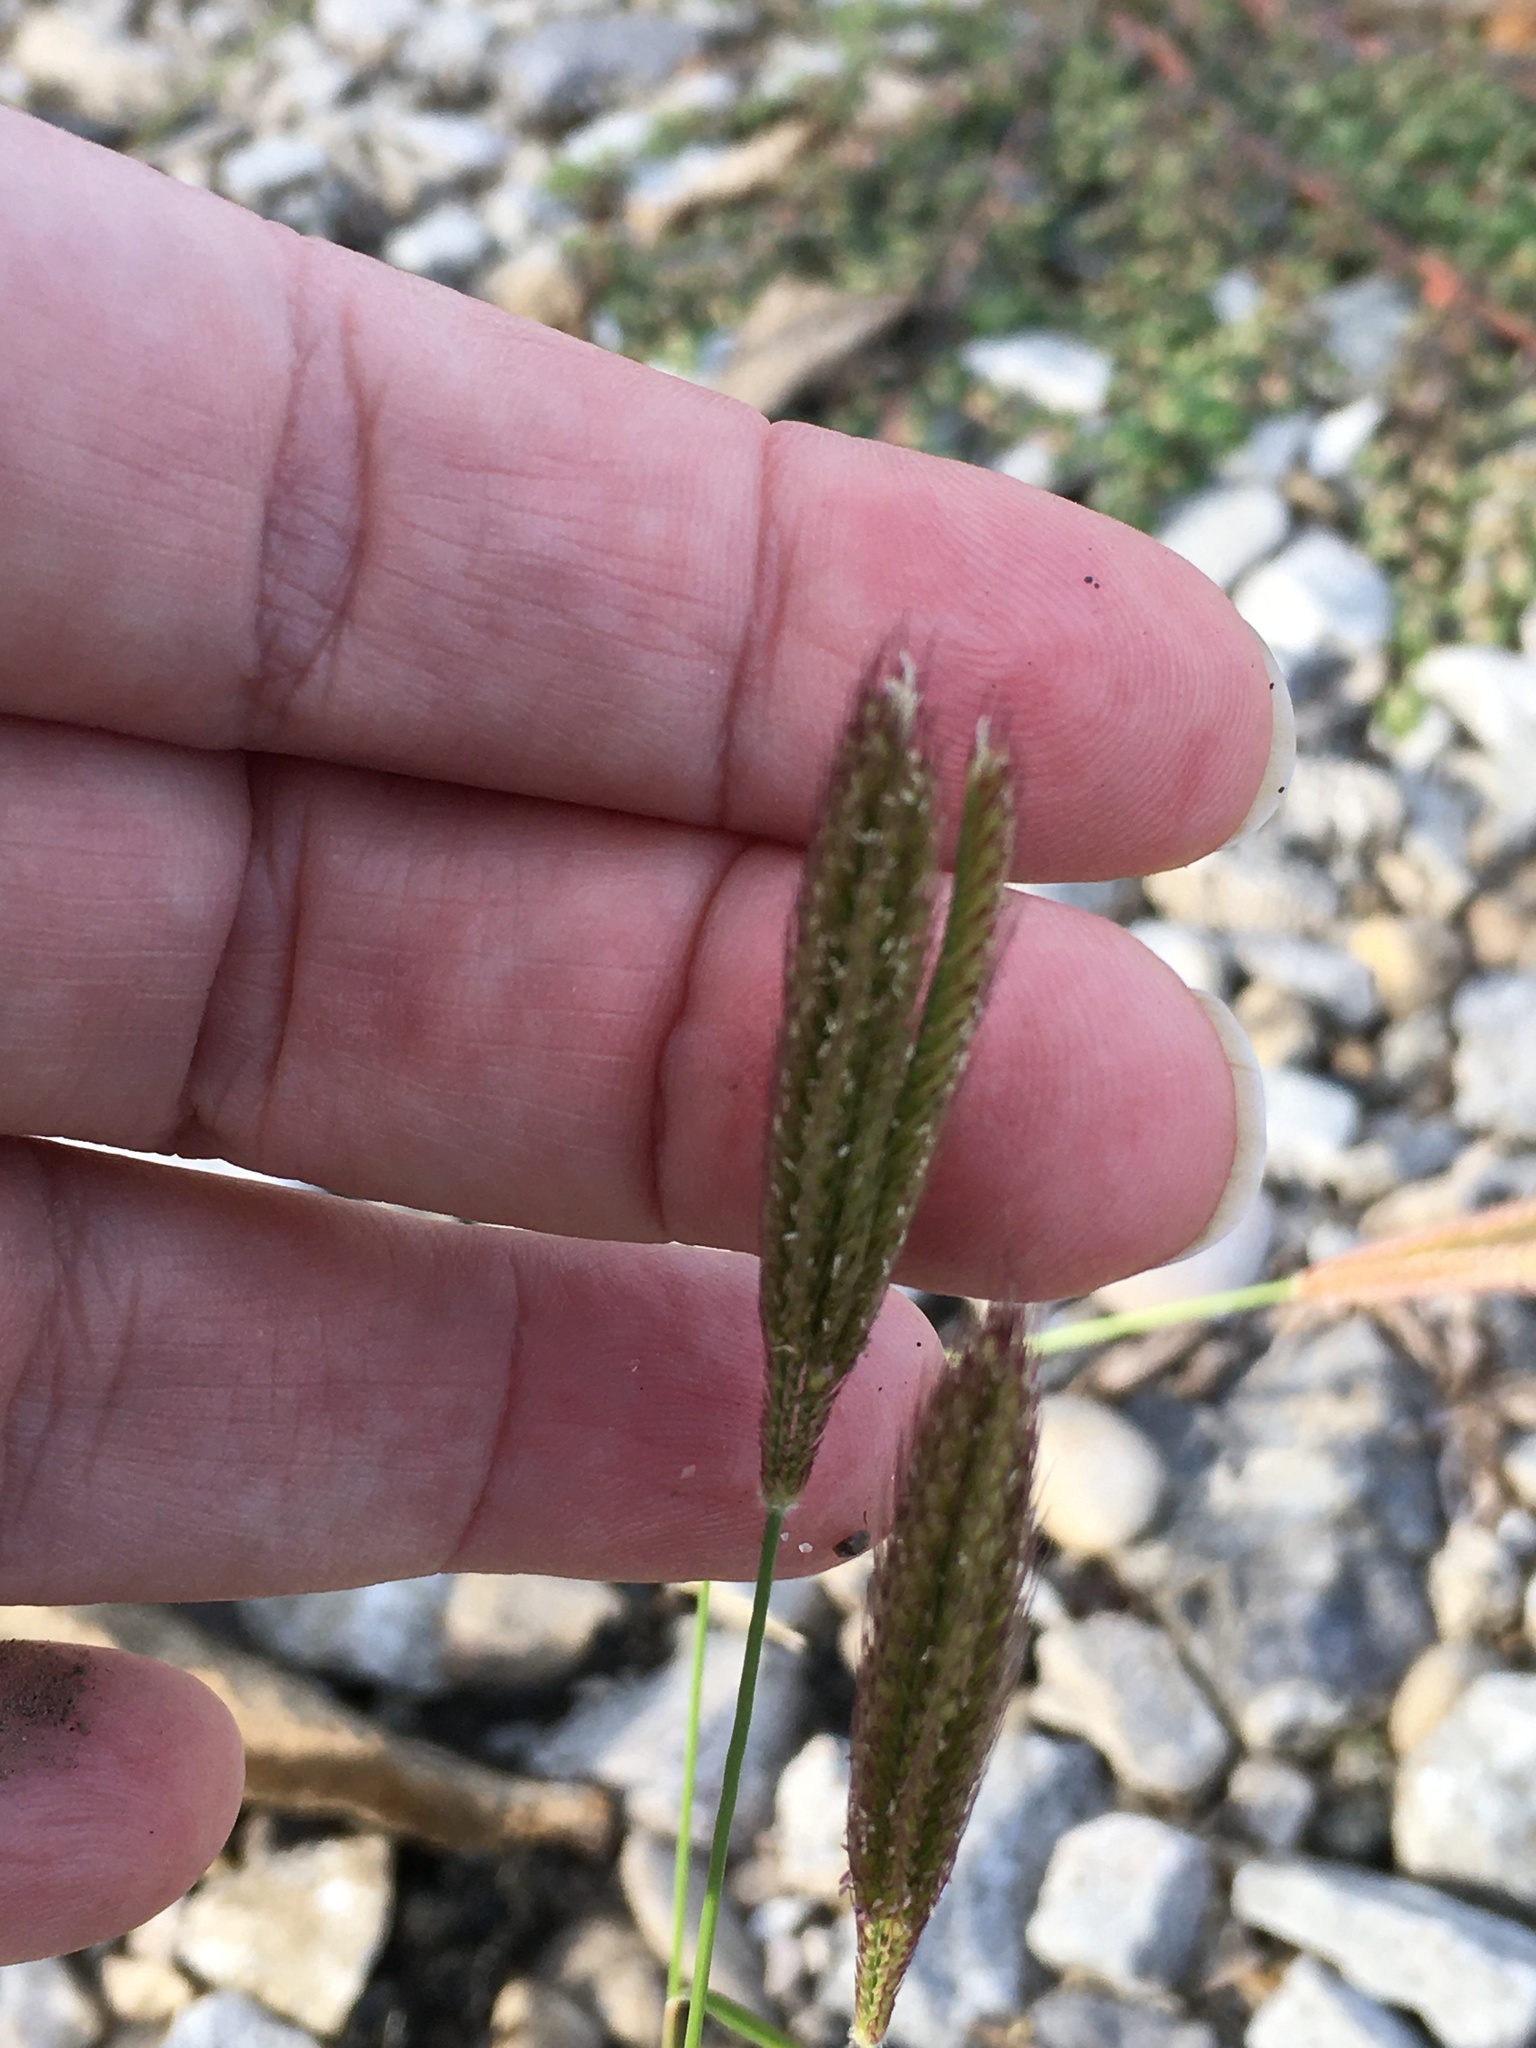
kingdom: Plantae
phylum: Tracheophyta
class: Liliopsida
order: Poales
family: Poaceae
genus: Chloris
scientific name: Chloris virgata
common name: Feathery rhodes-grass
